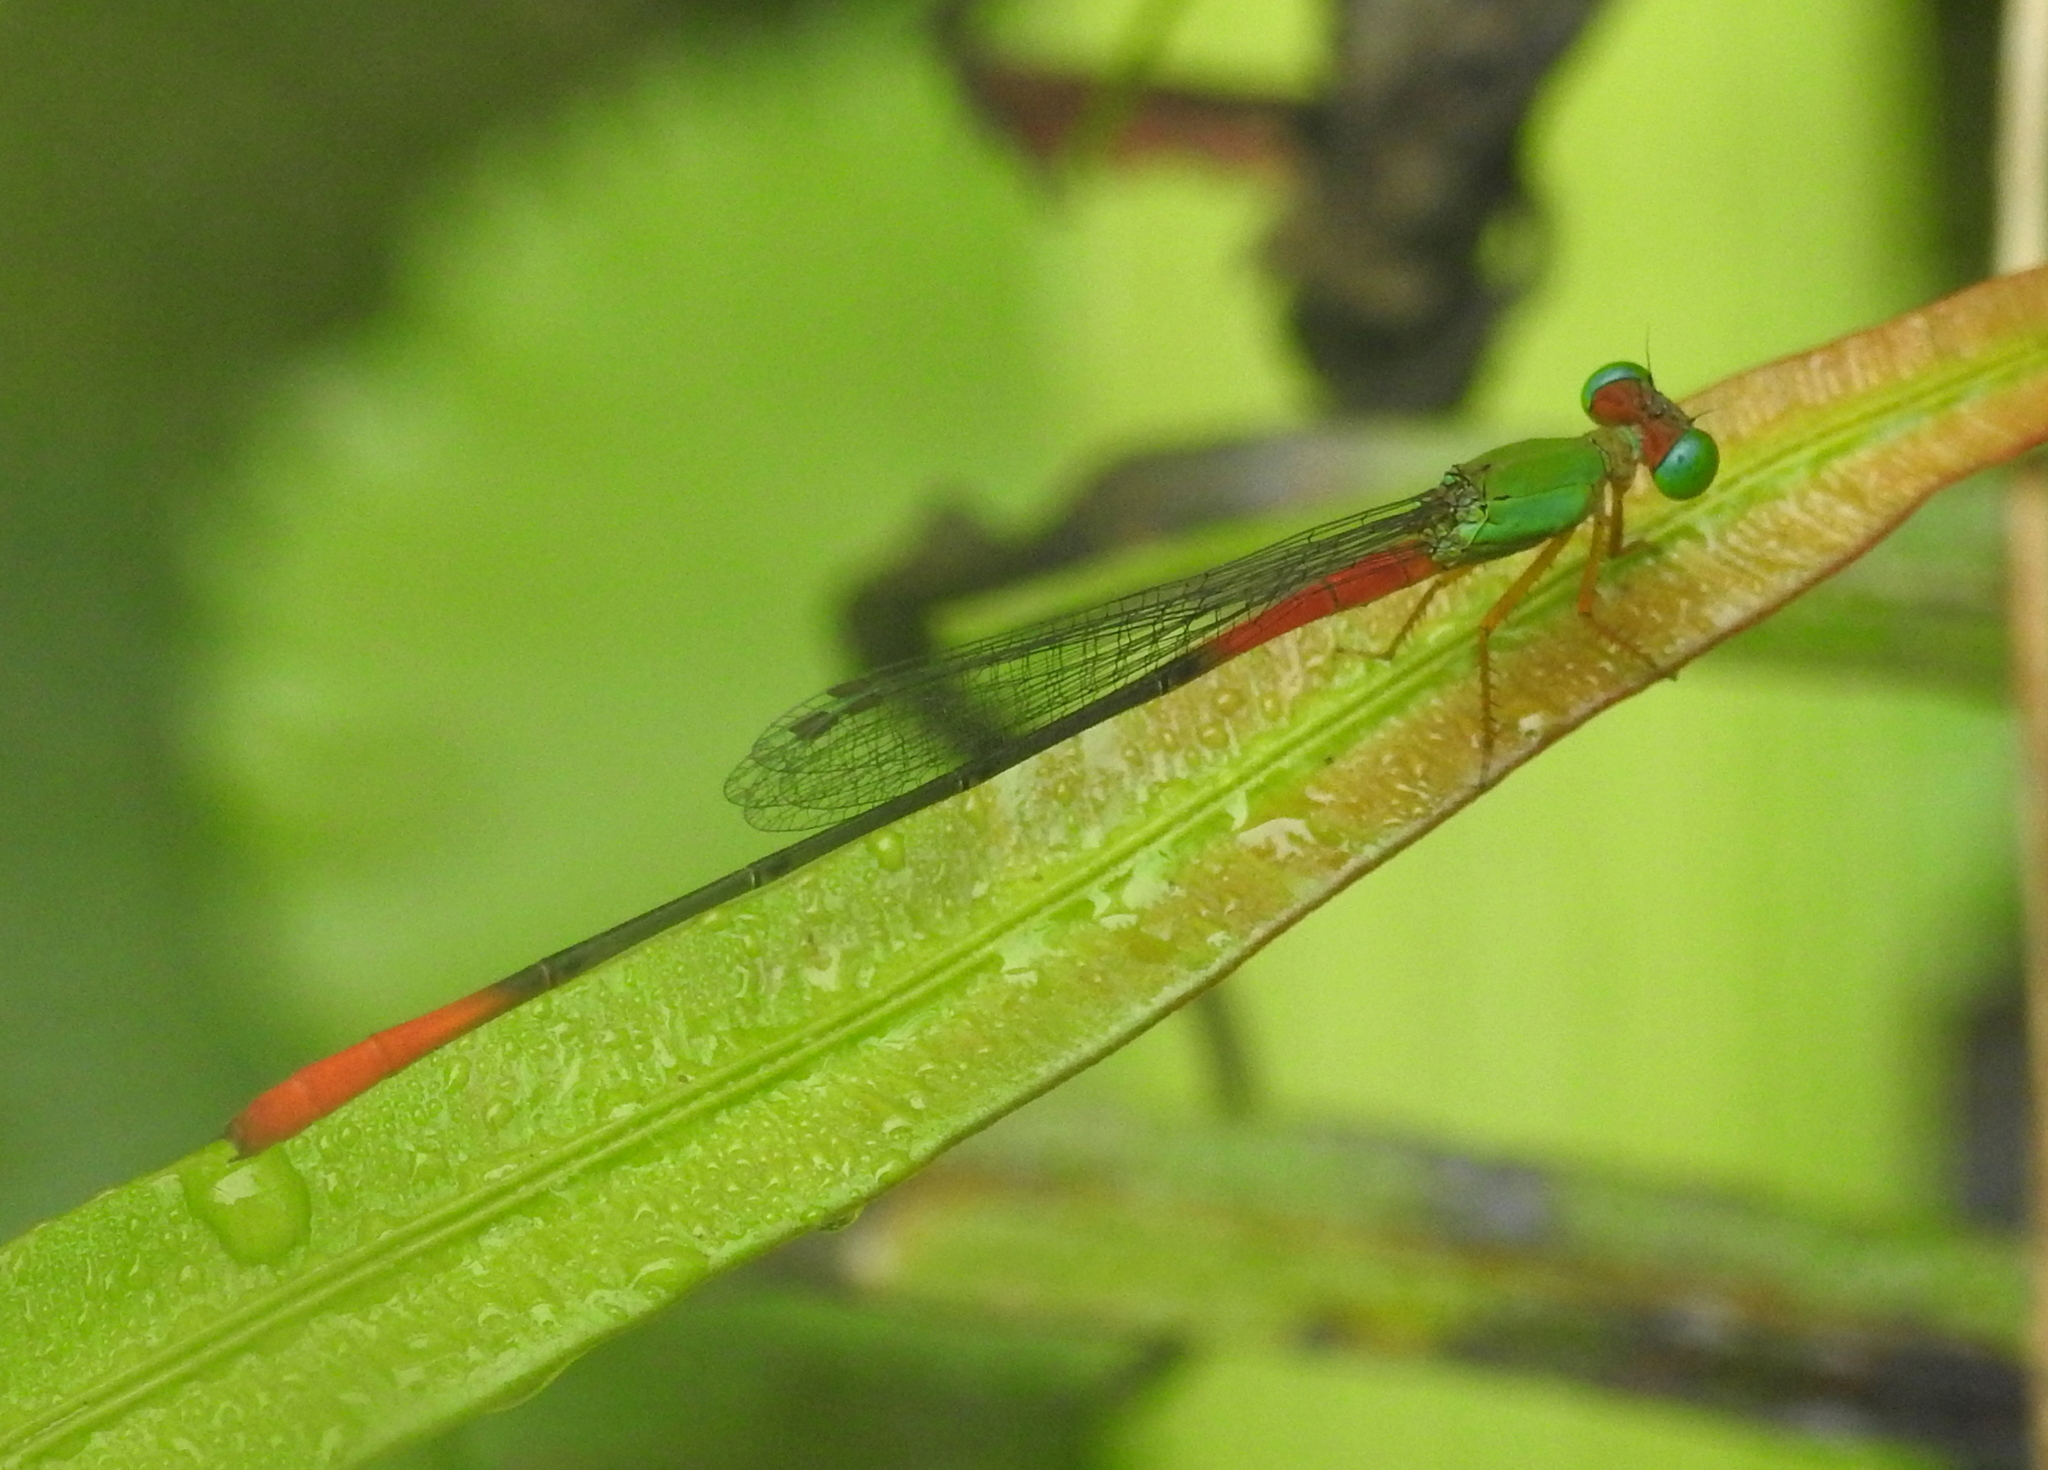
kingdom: Animalia
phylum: Arthropoda
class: Insecta
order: Odonata
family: Coenagrionidae
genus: Ceriagrion
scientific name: Ceriagrion cerinorubellum
